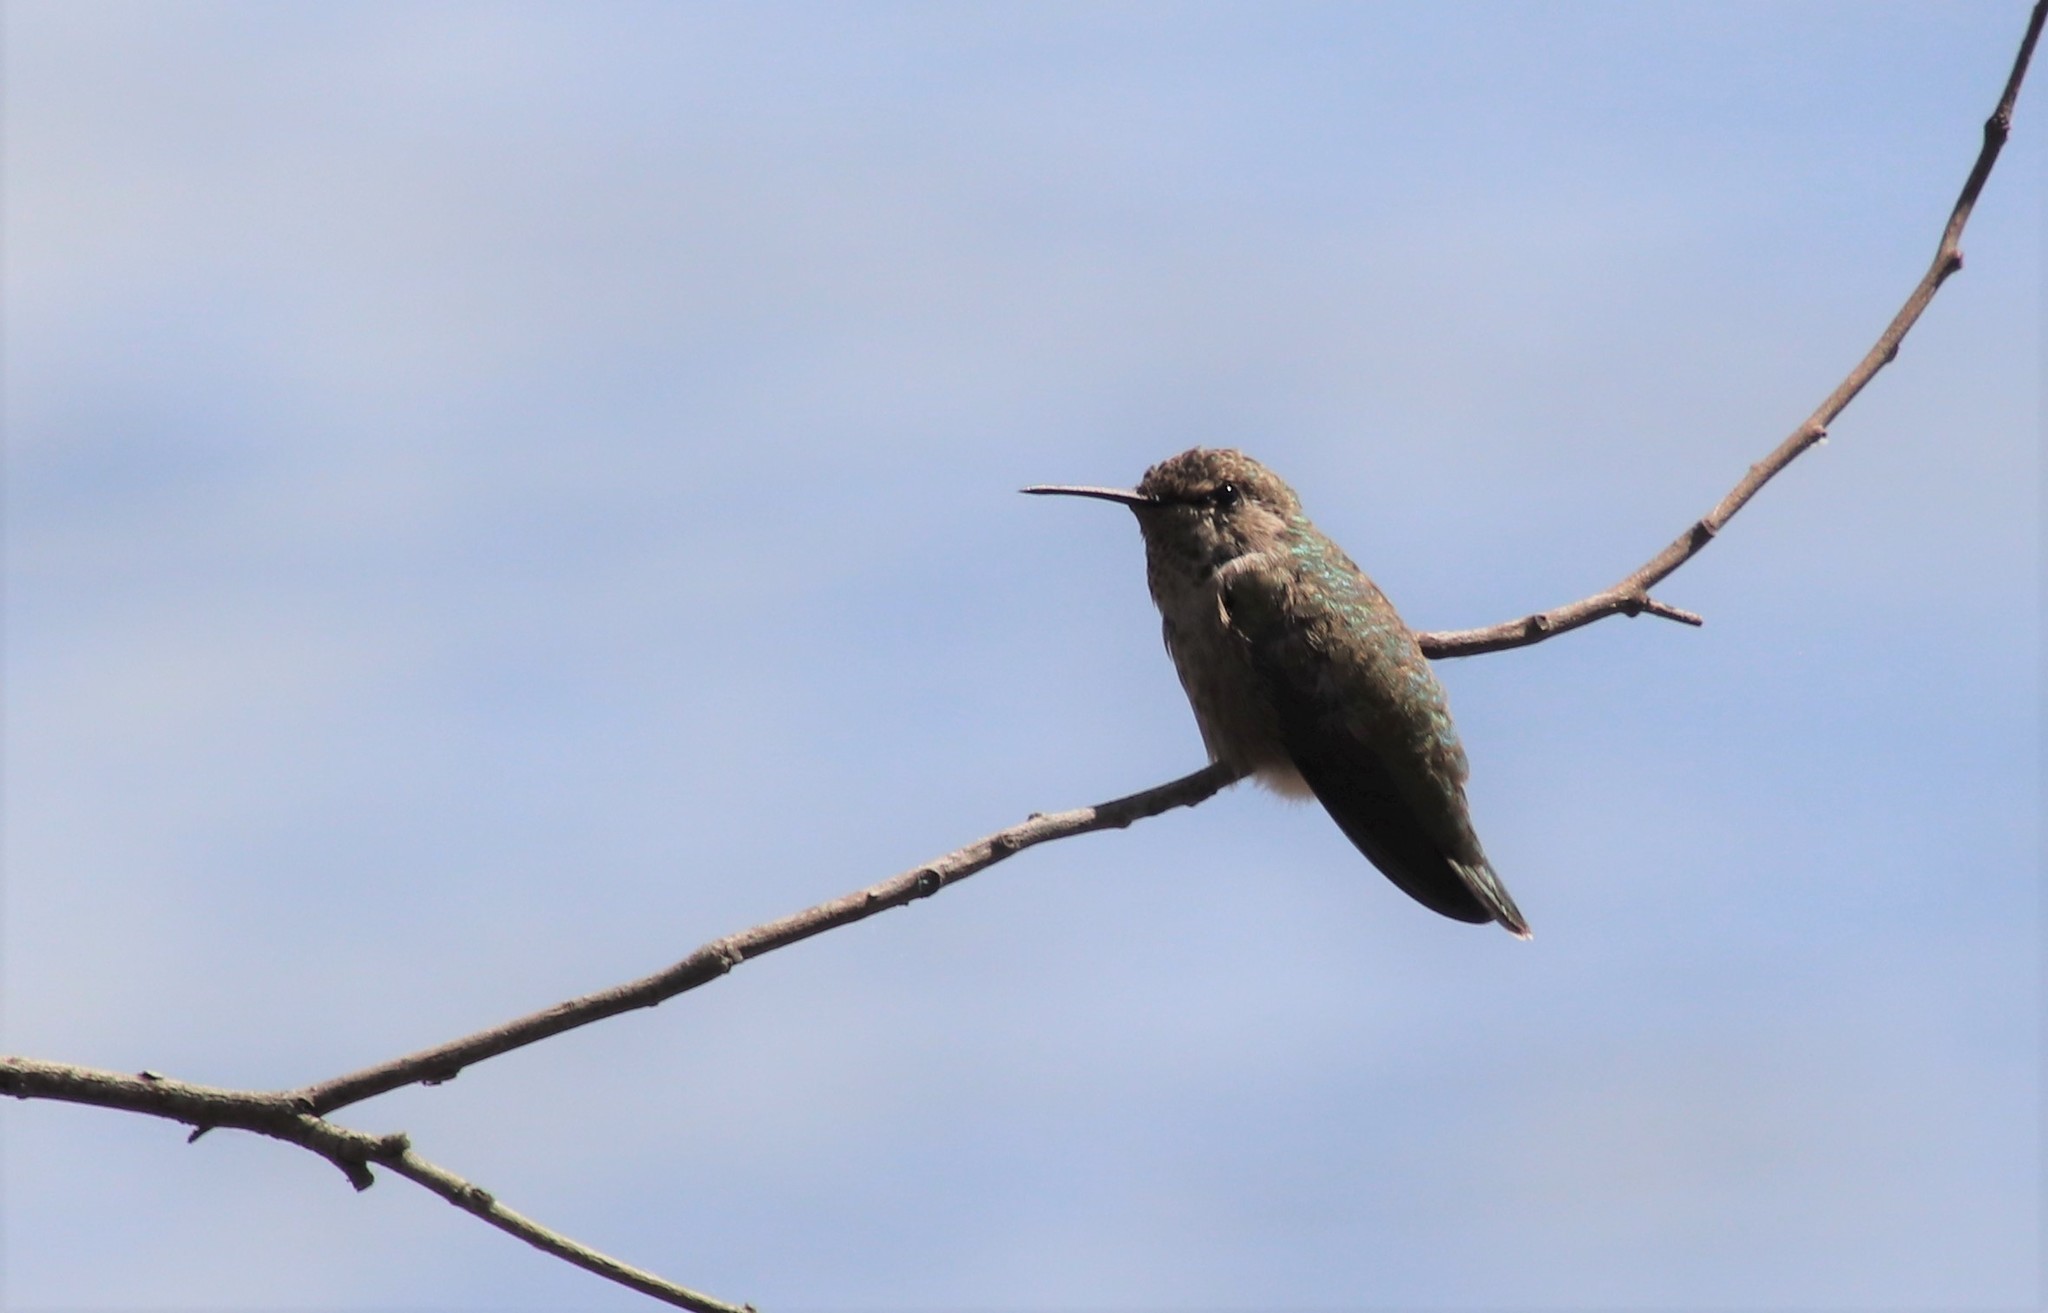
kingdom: Animalia
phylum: Chordata
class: Aves
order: Apodiformes
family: Trochilidae
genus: Calypte
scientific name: Calypte anna
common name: Anna's hummingbird
